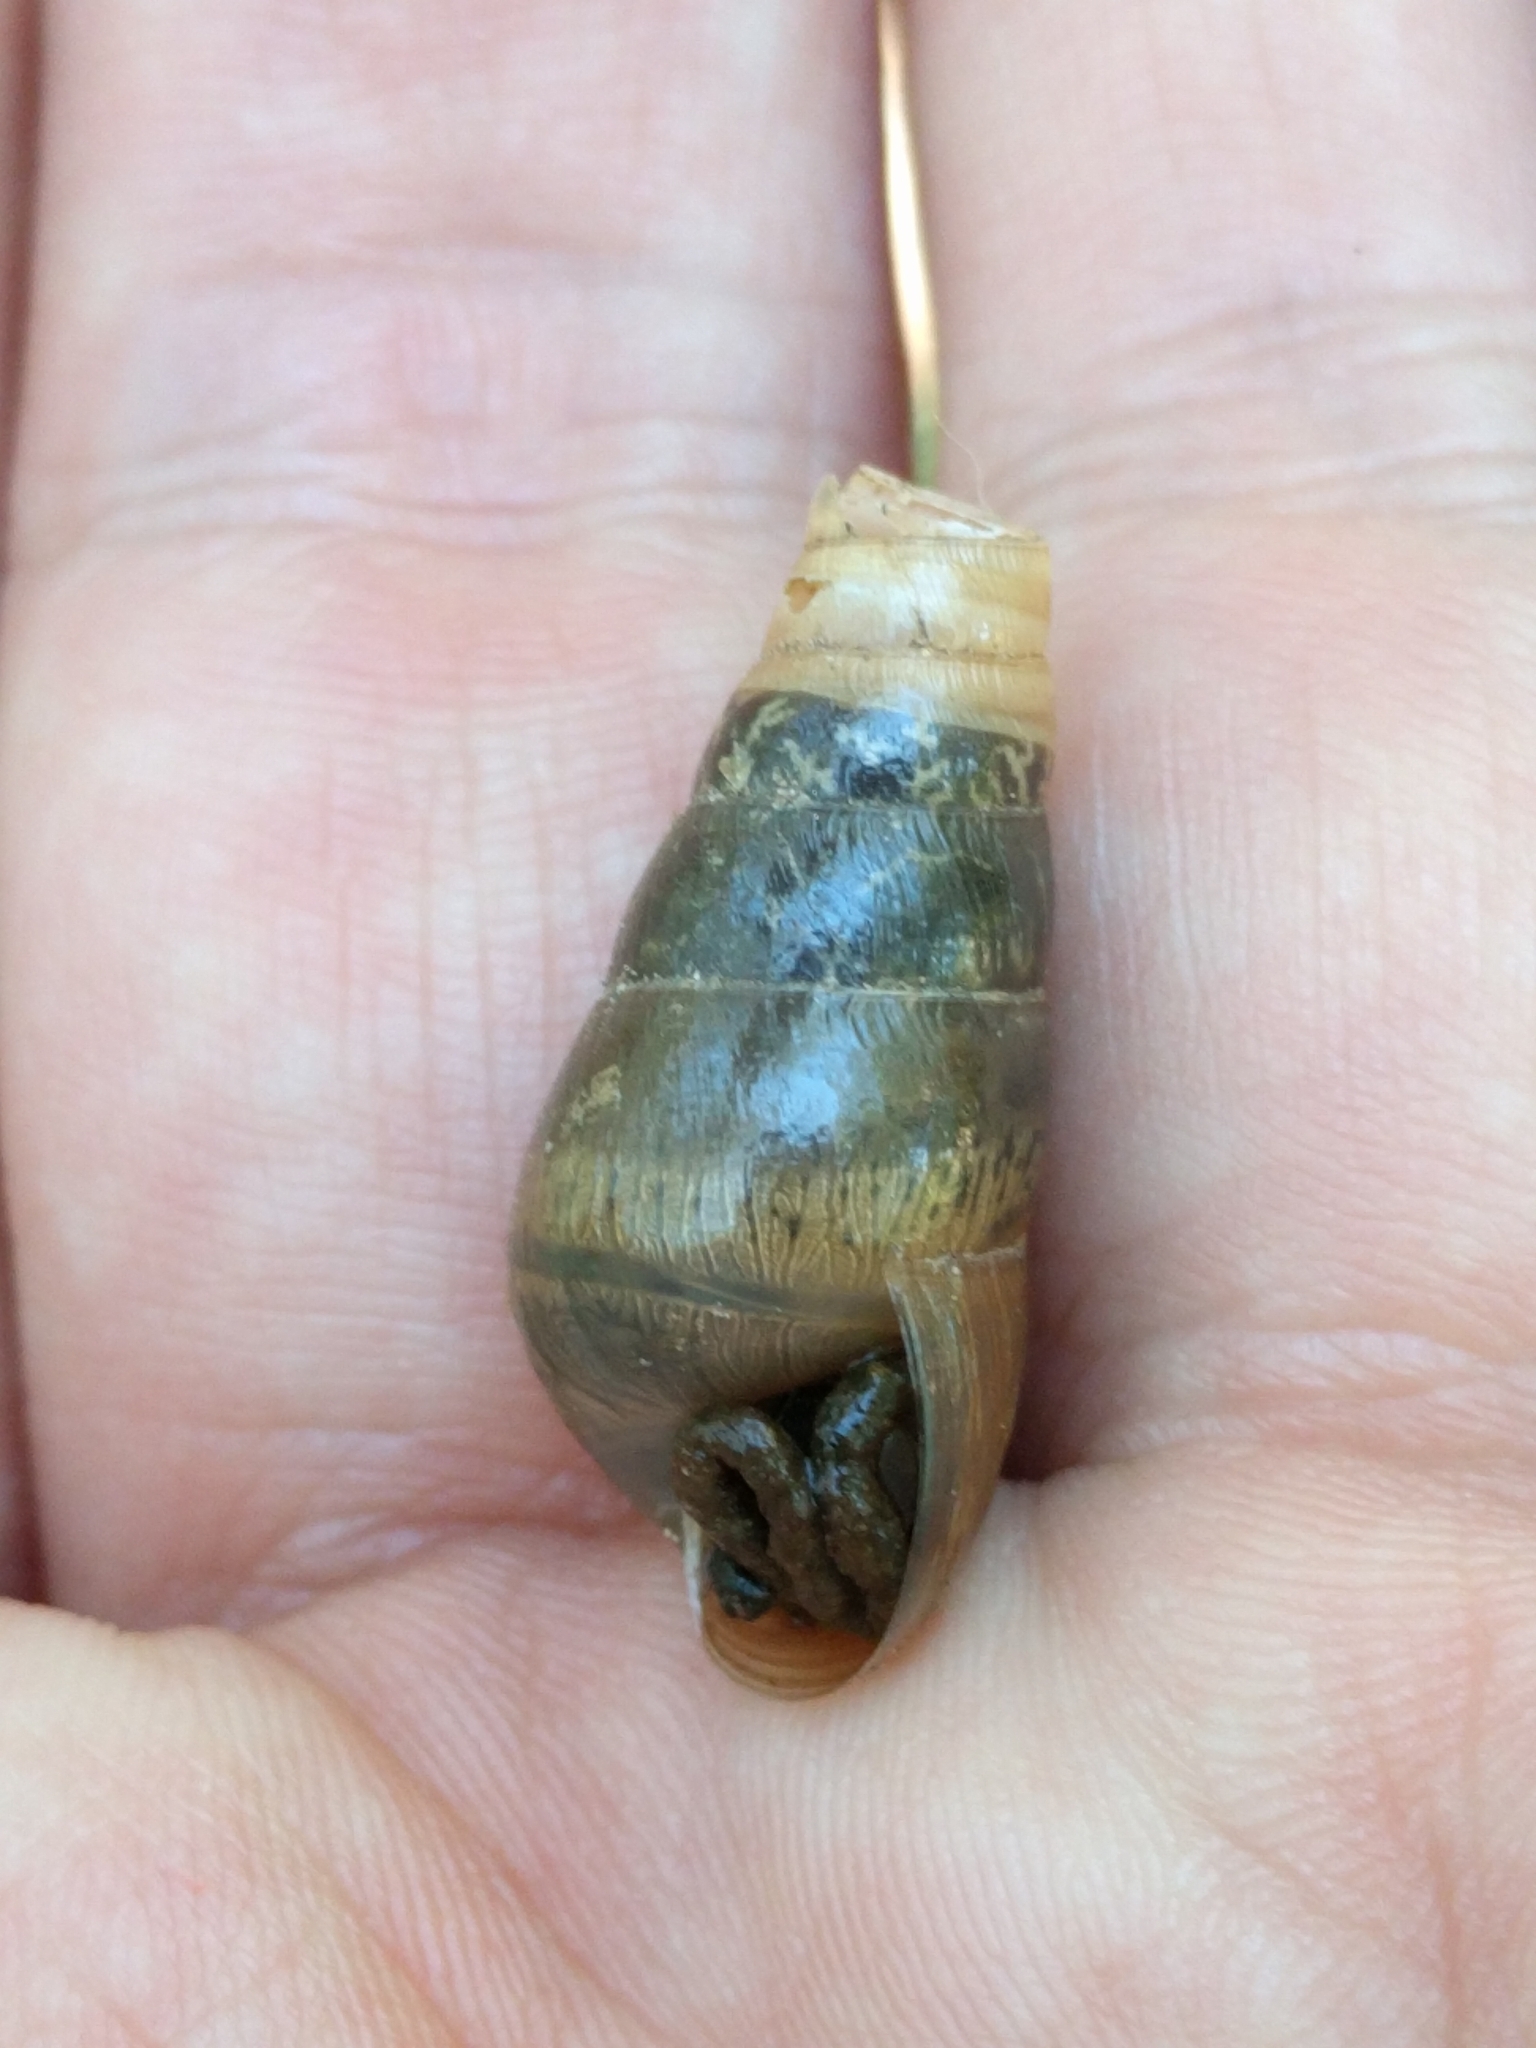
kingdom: Animalia
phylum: Mollusca
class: Gastropoda
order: Stylommatophora
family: Achatinidae
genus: Rumina
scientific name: Rumina decollata
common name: Decollate snail
